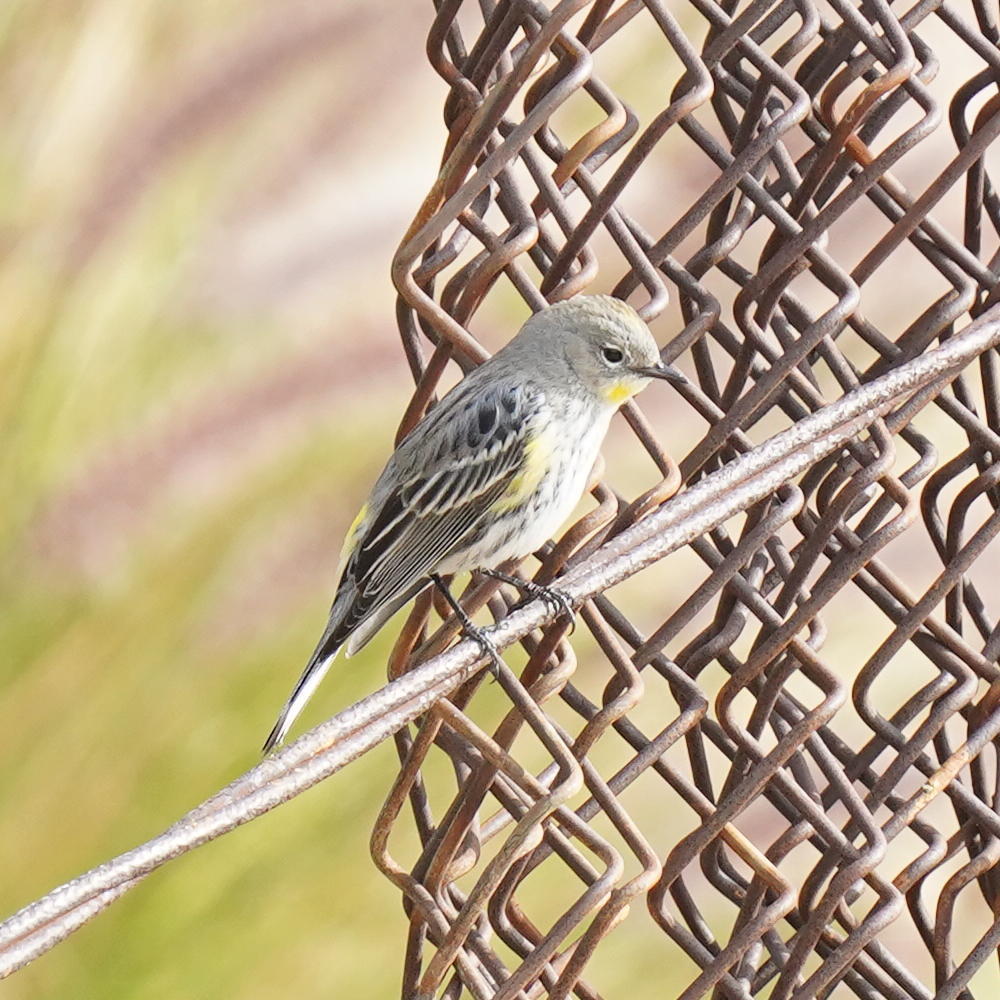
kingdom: Animalia
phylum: Chordata
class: Aves
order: Passeriformes
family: Parulidae
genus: Setophaga
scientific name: Setophaga coronata
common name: Myrtle warbler
